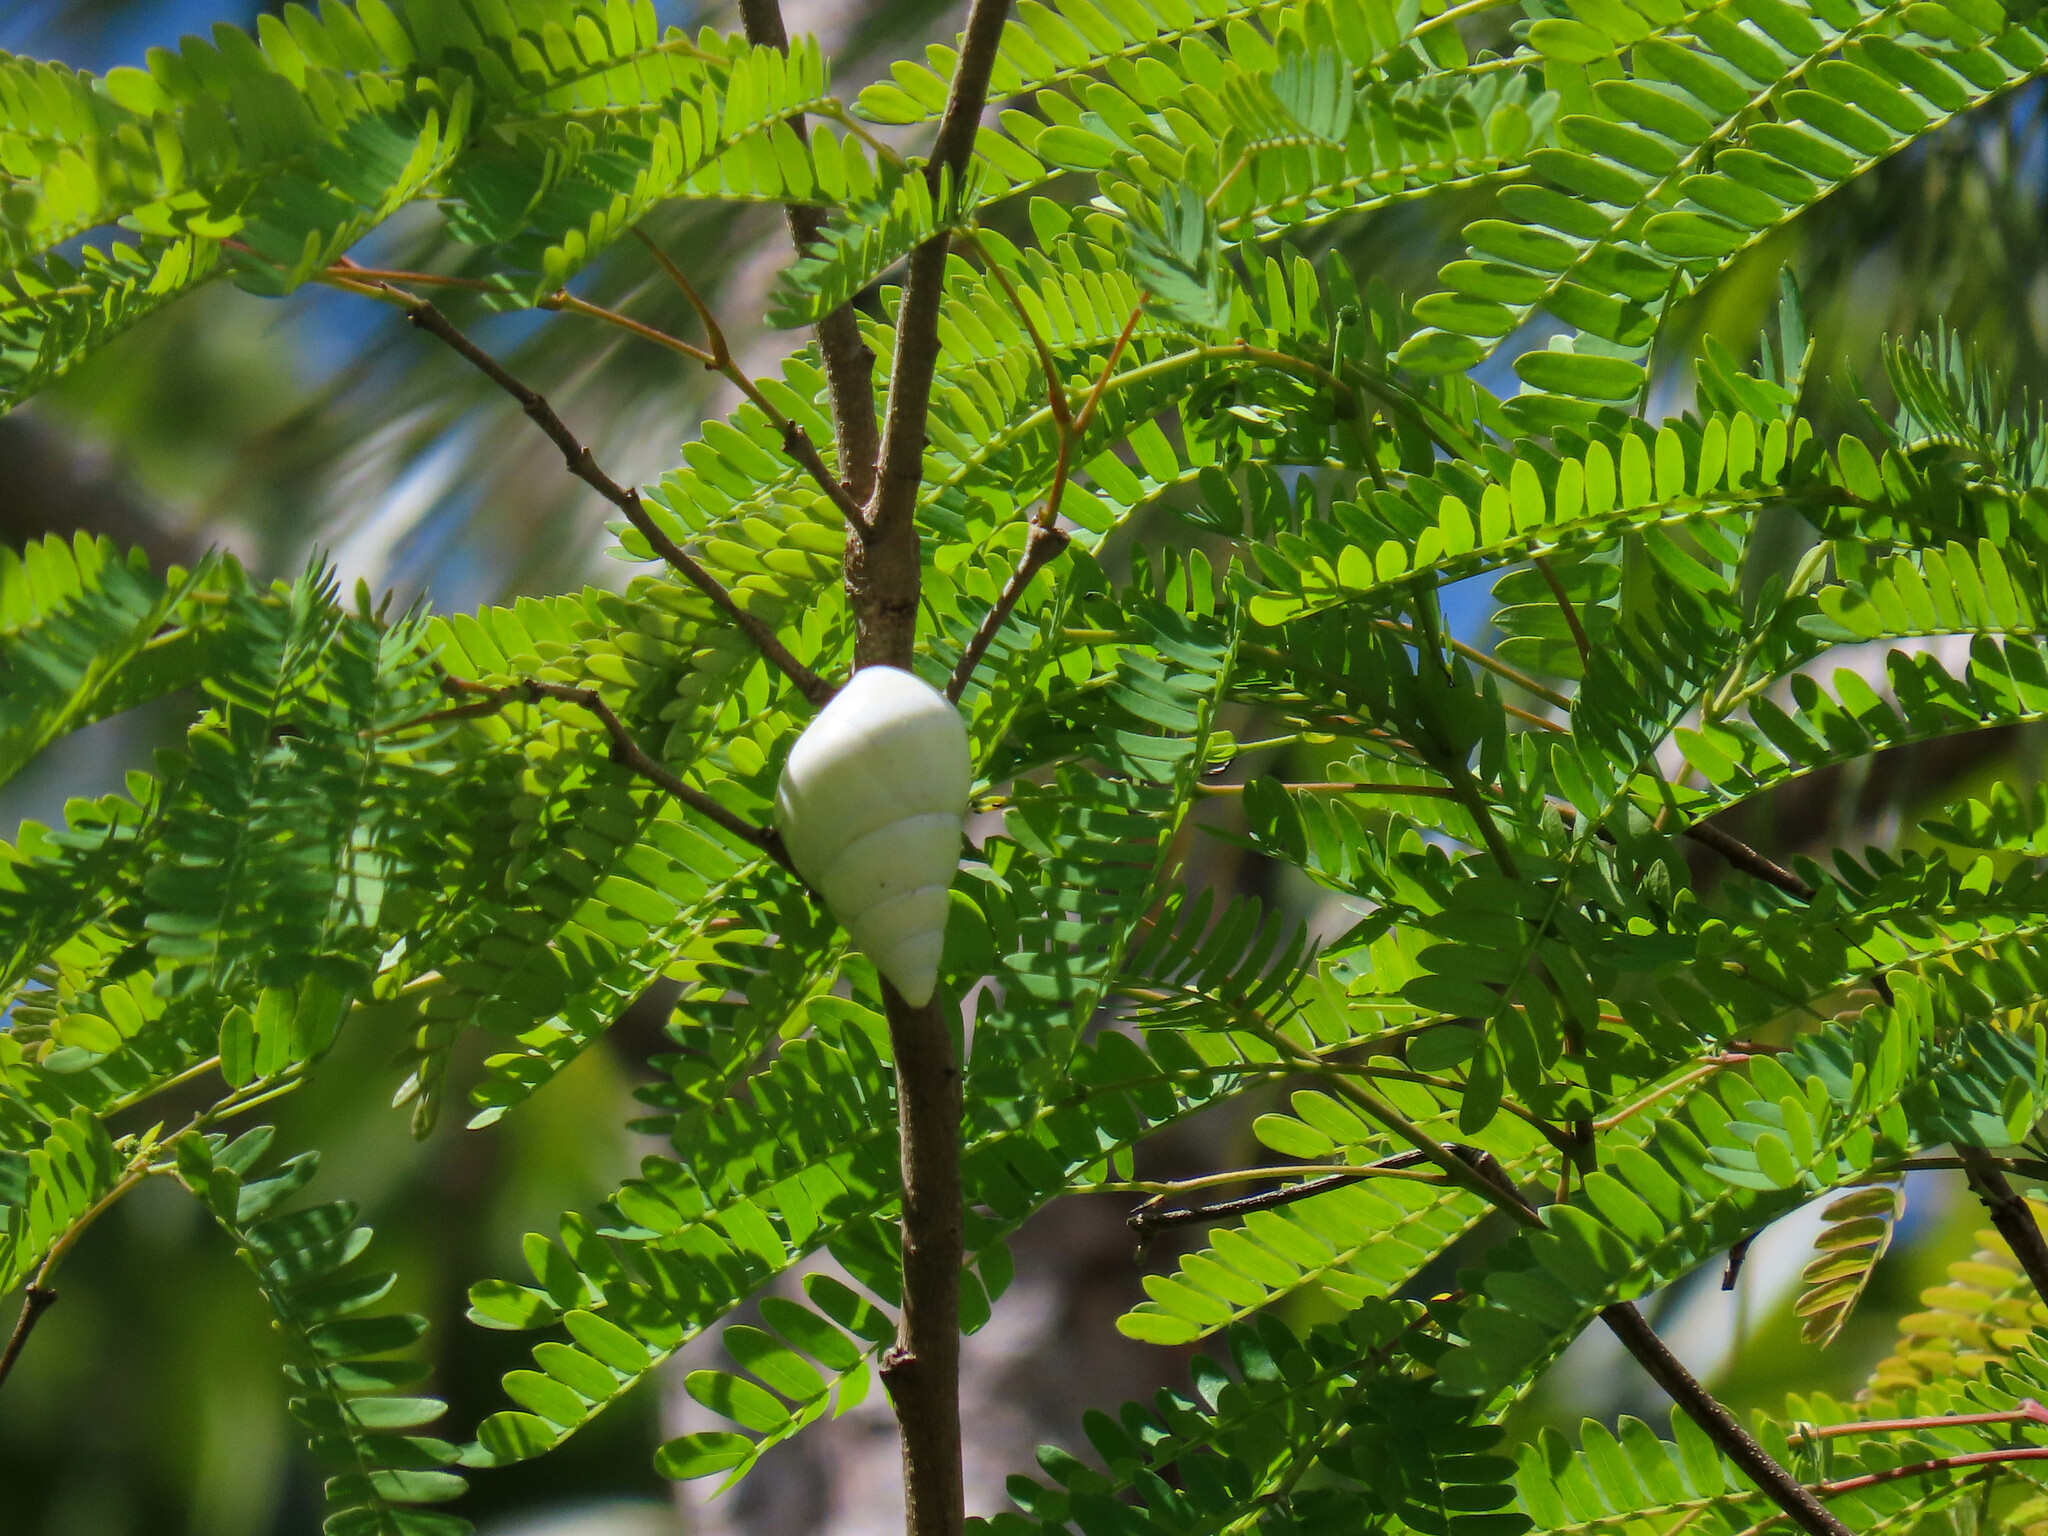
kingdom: Animalia
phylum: Mollusca
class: Gastropoda
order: Stylommatophora
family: Orthalicidae
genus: Liguus
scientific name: Liguus fasciatus
